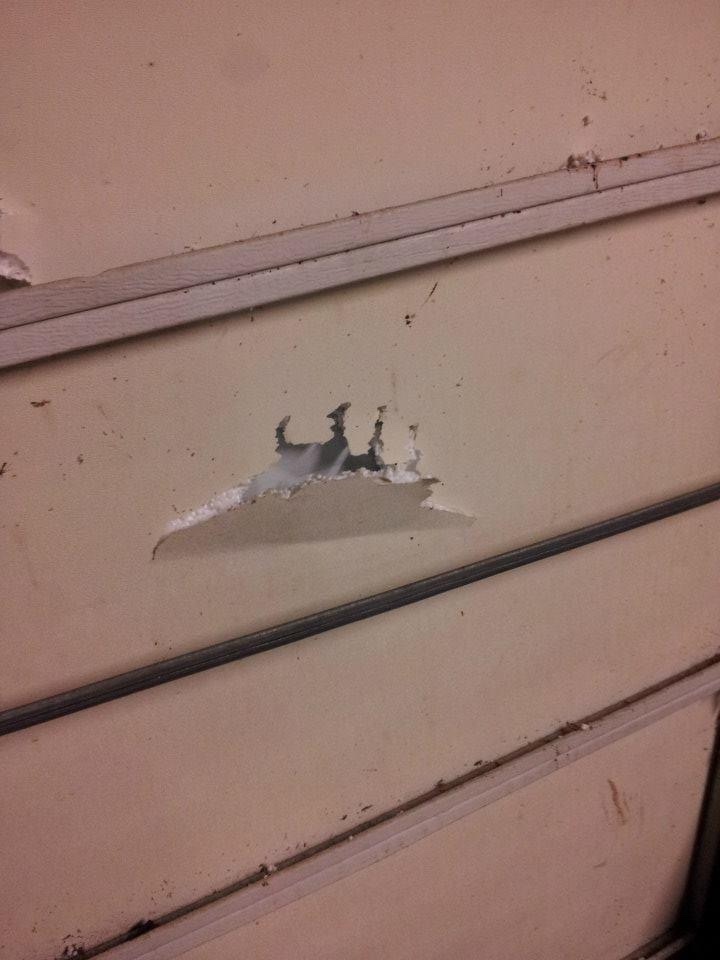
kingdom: Animalia
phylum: Chordata
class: Mammalia
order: Carnivora
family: Ursidae
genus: Ursus
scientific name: Ursus americanus
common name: American black bear
